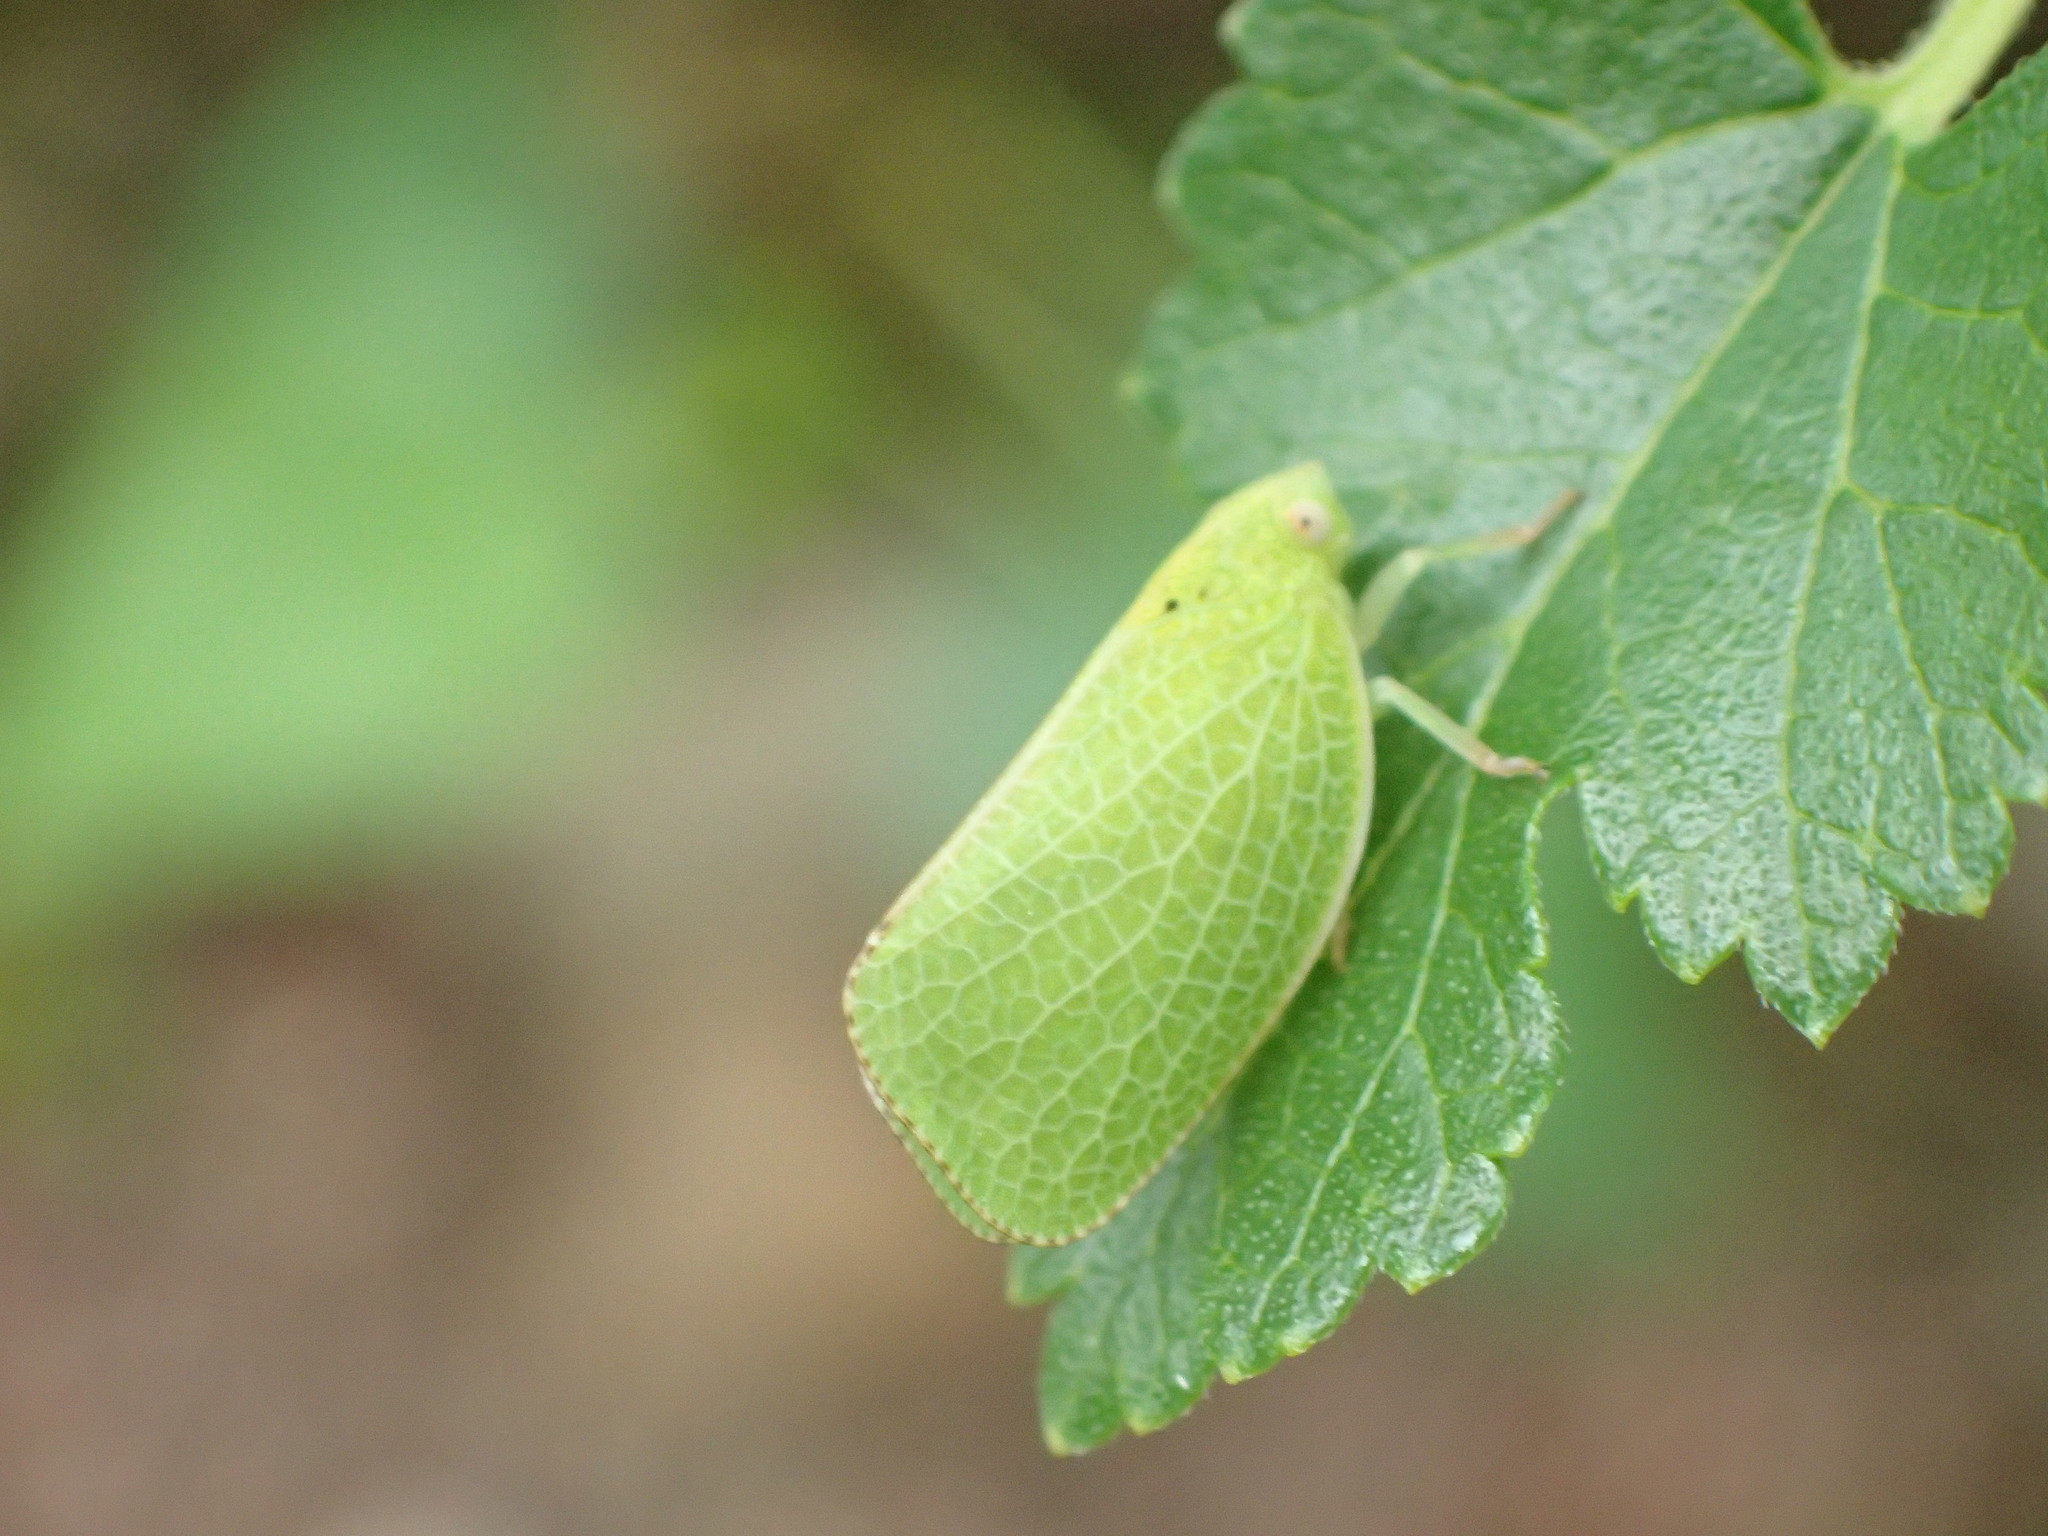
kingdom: Animalia
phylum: Arthropoda
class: Insecta
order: Hemiptera
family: Acanaloniidae
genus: Acanalonia
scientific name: Acanalonia conica
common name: Green cone-headed planthopper
